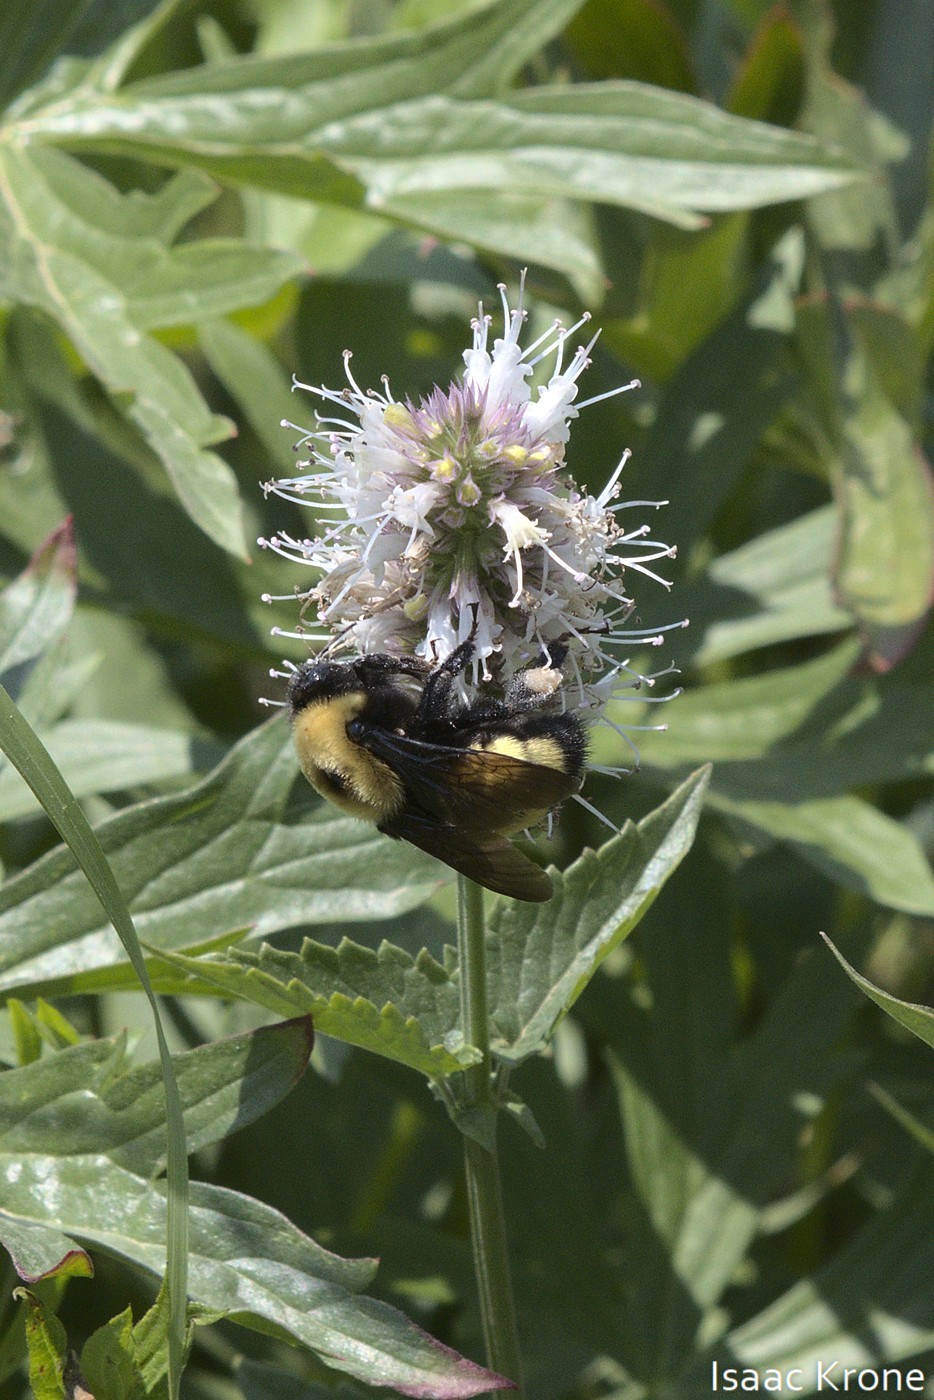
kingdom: Animalia
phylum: Arthropoda
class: Insecta
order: Hymenoptera
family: Apidae
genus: Bombus
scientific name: Bombus nevadensis
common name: Nevada bumble bee
